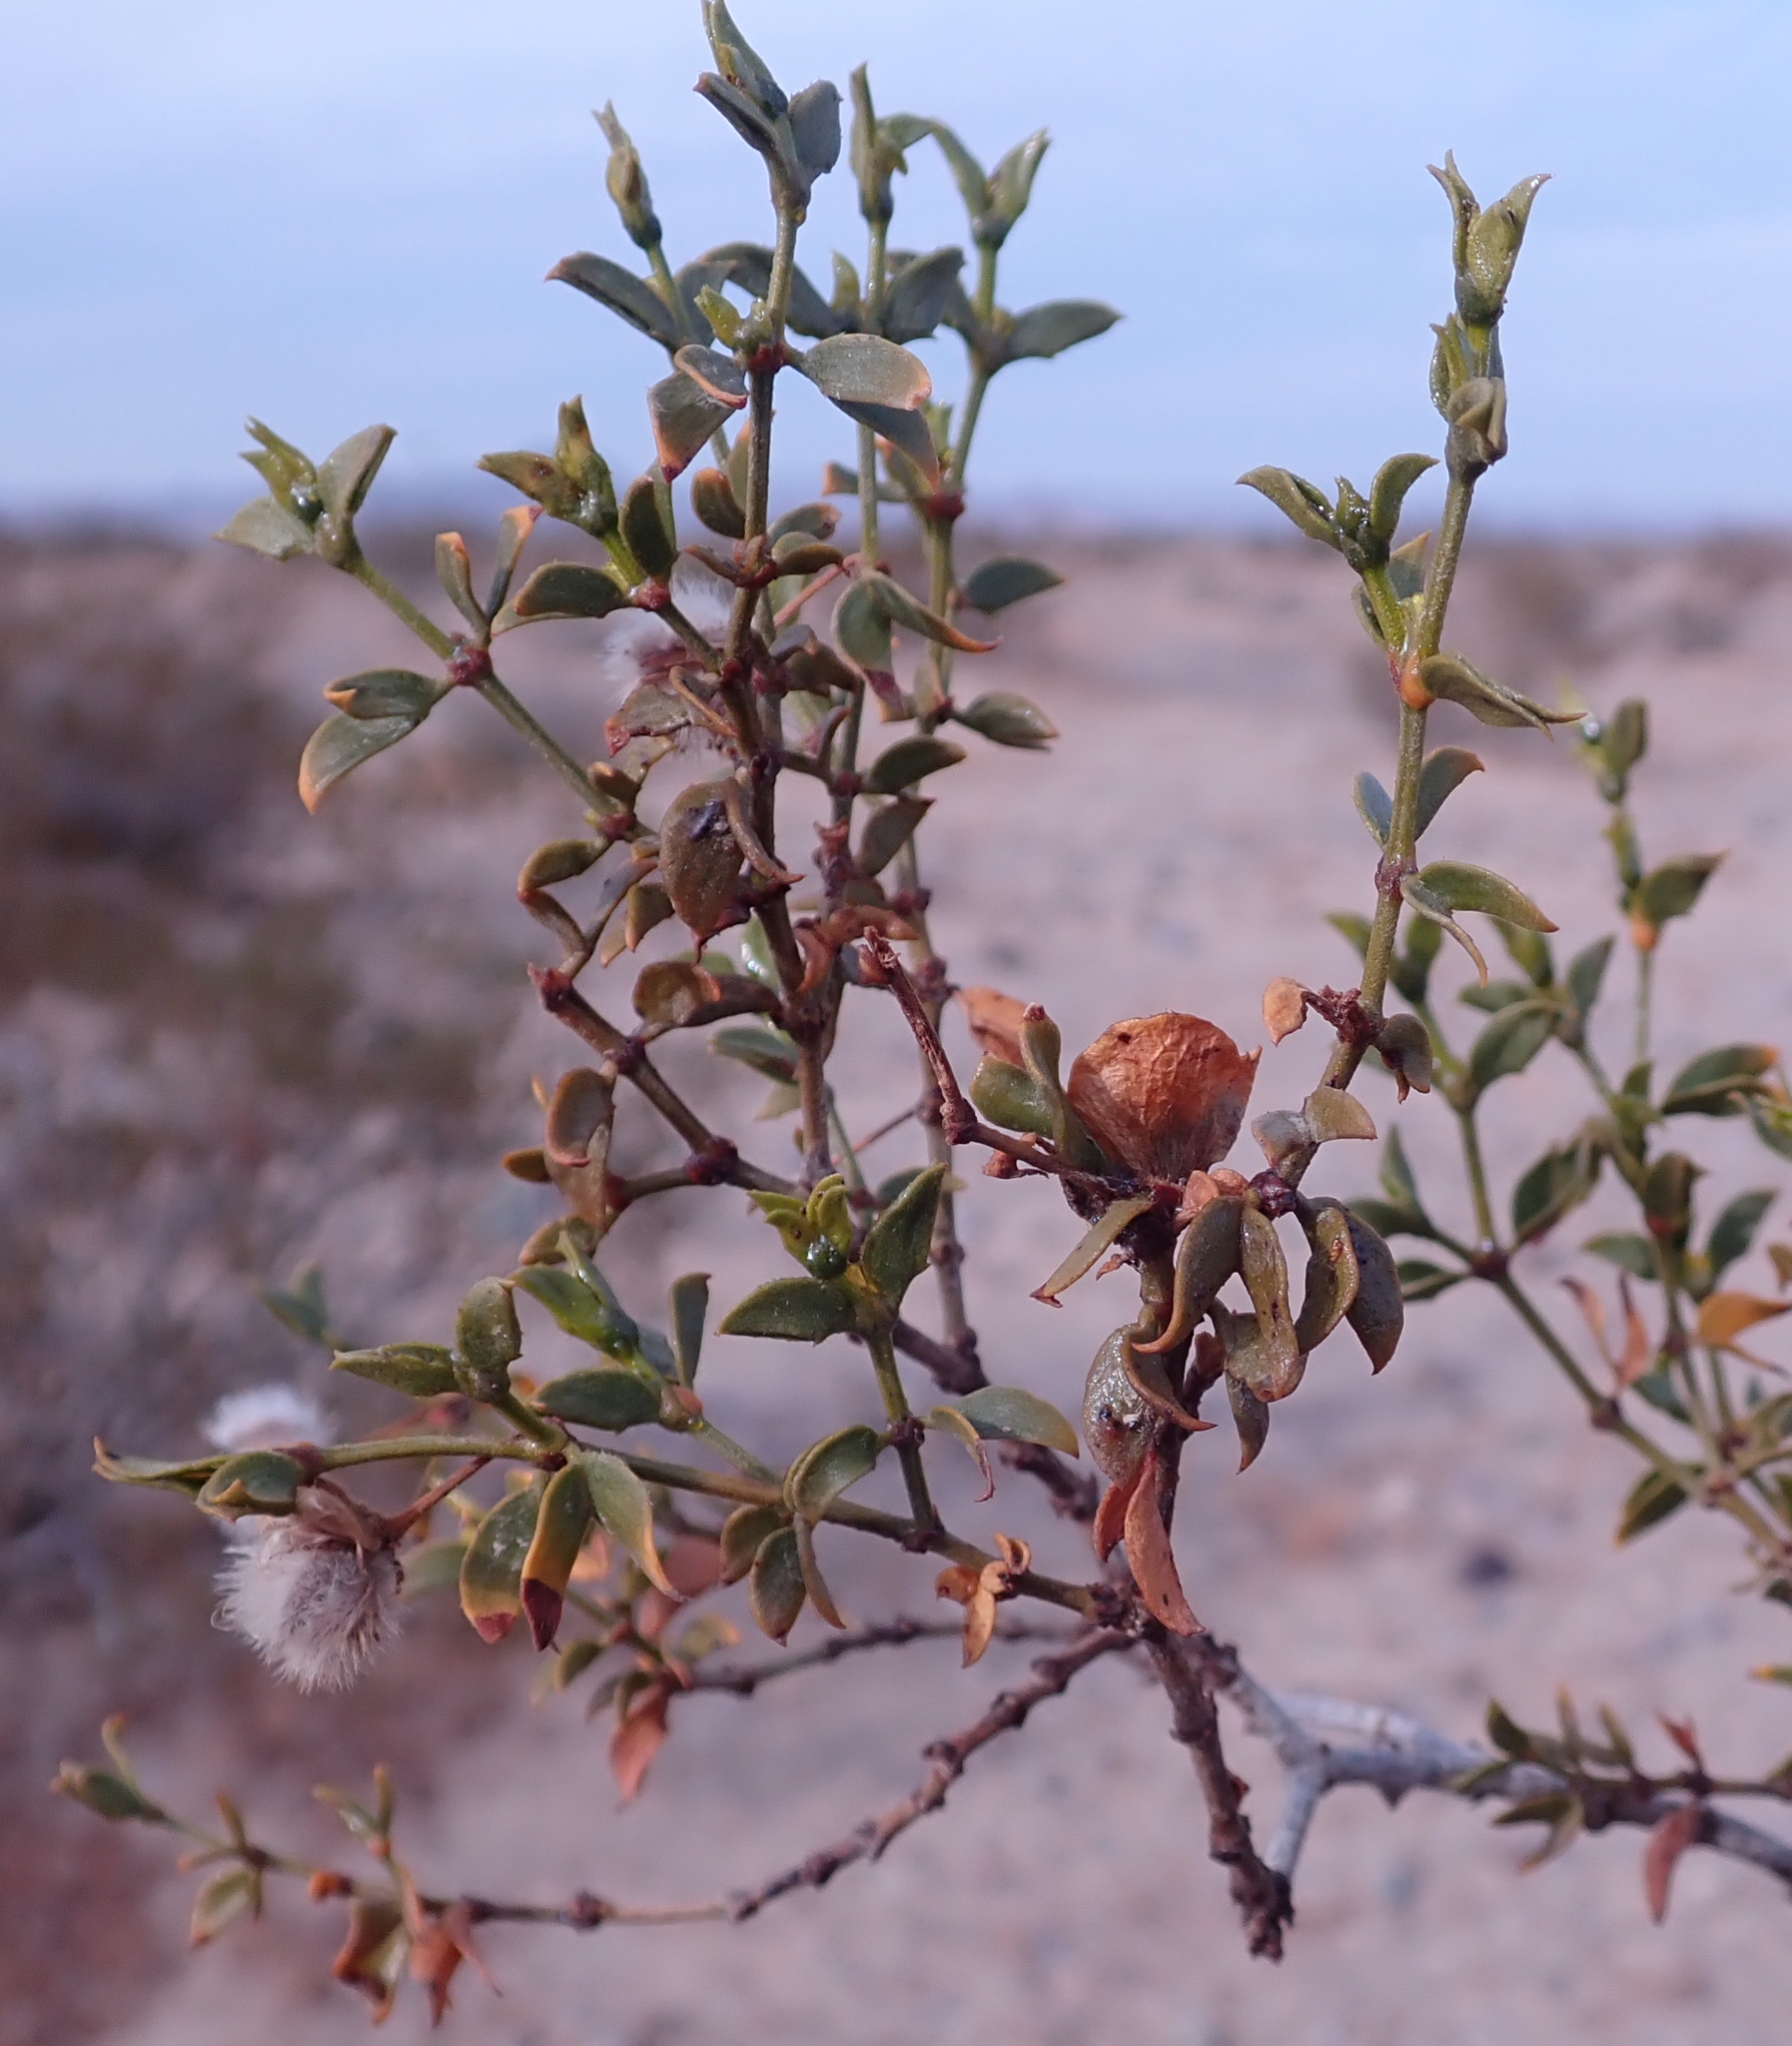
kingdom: Plantae
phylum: Tracheophyta
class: Magnoliopsida
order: Zygophyllales
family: Zygophyllaceae
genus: Larrea
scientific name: Larrea tridentata
